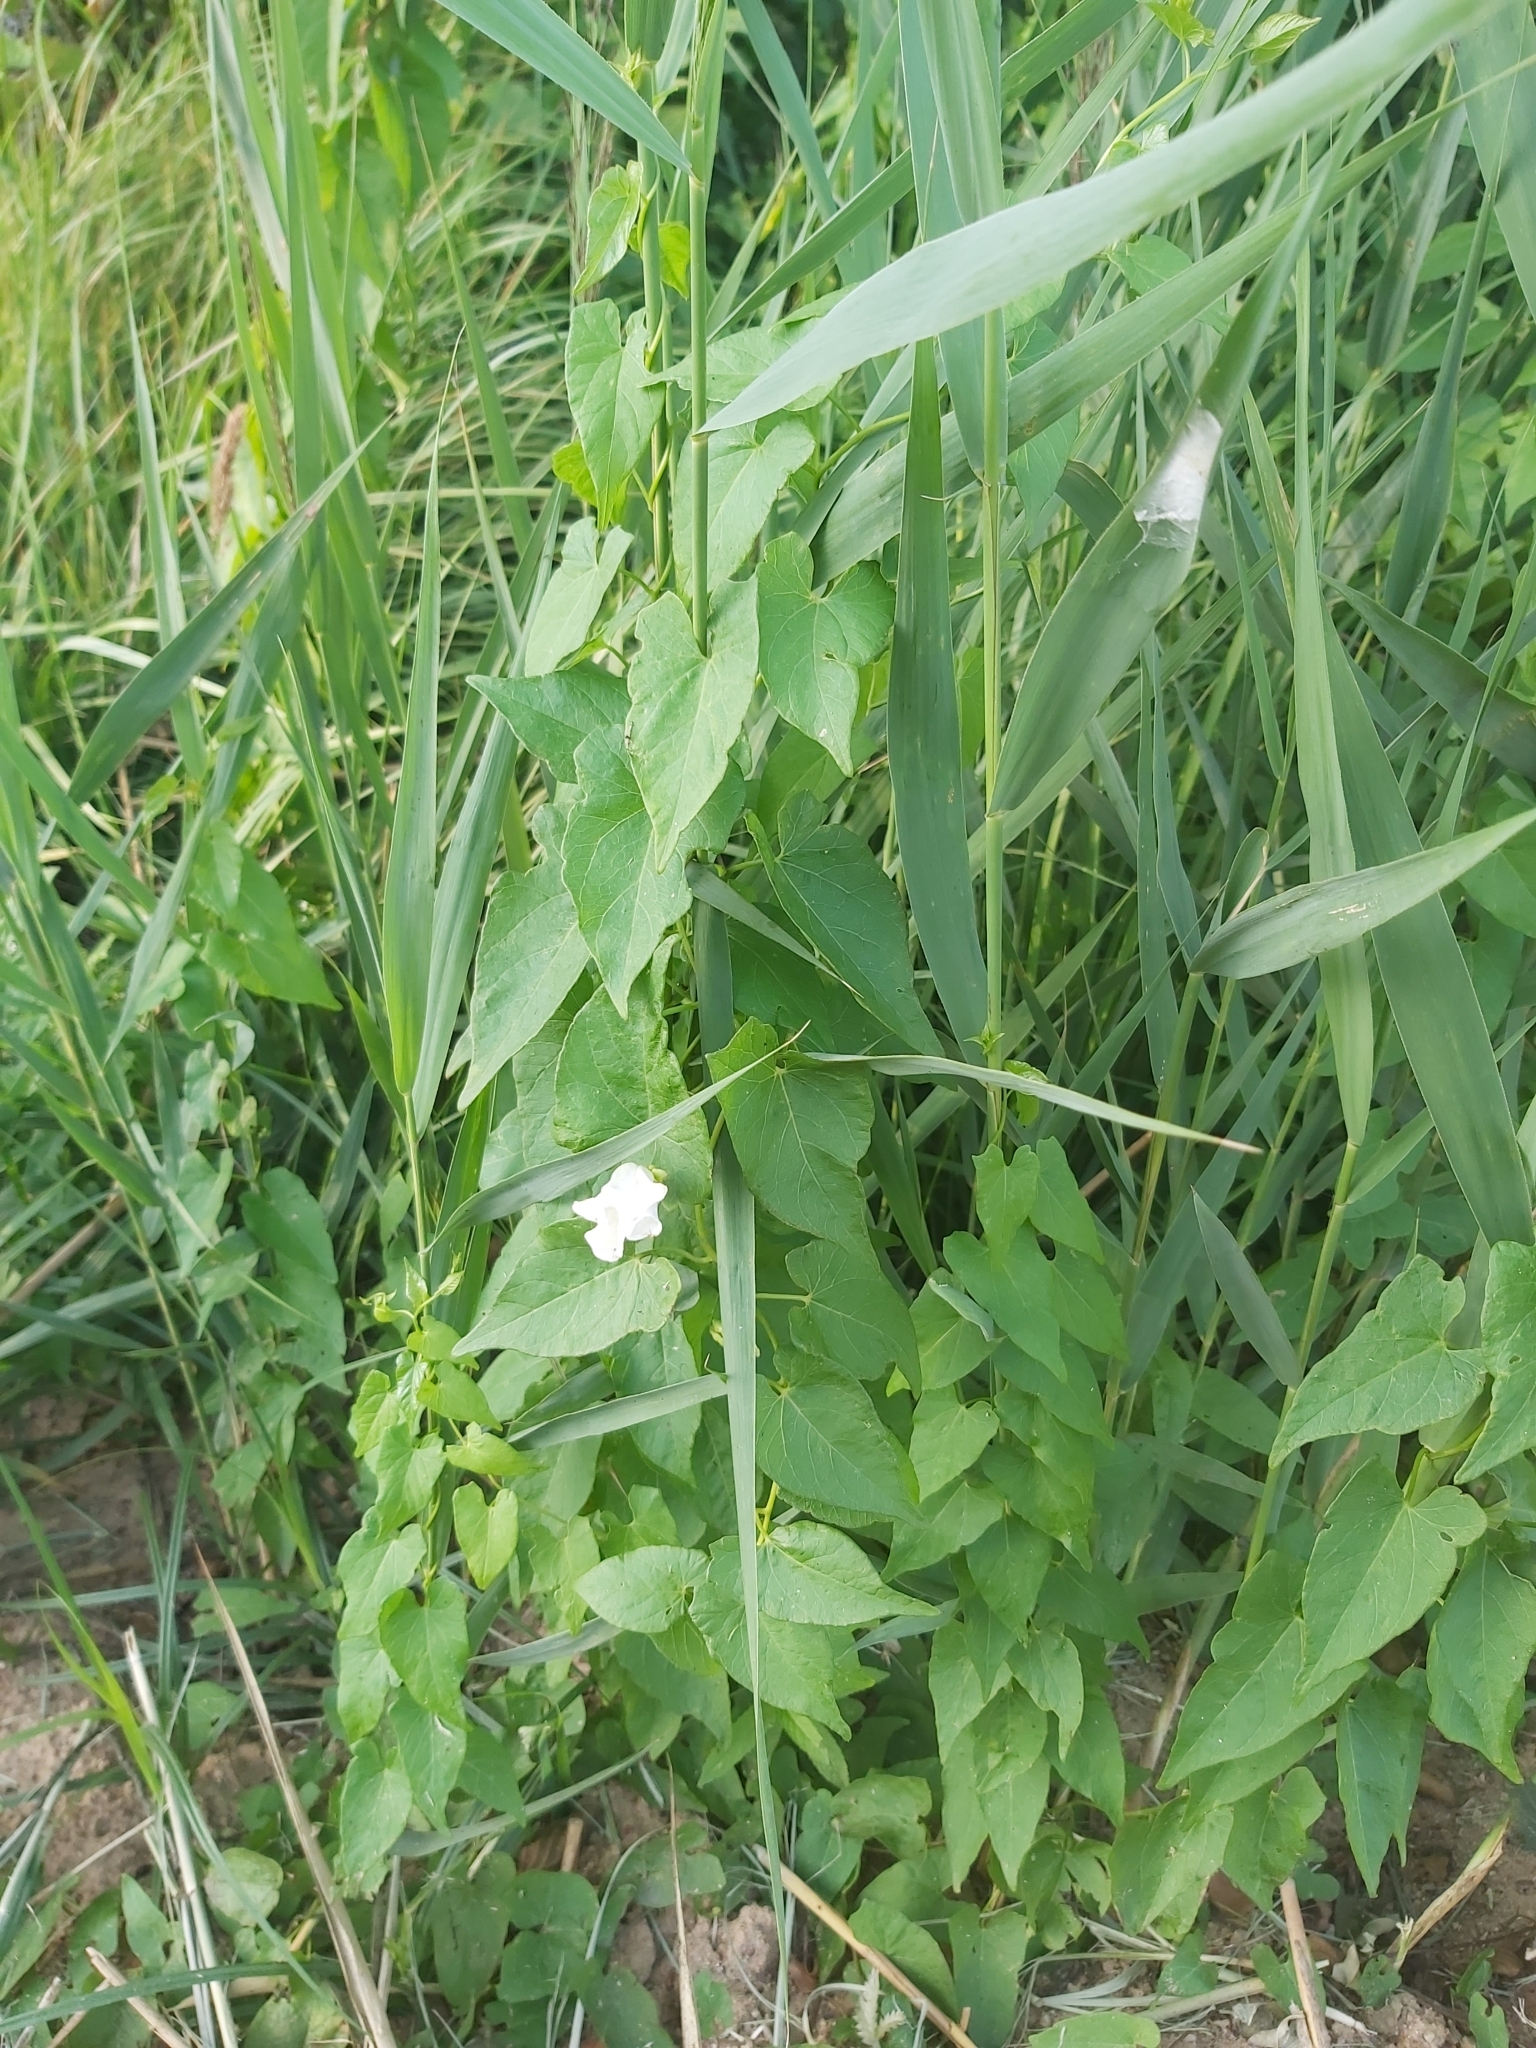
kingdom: Plantae
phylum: Tracheophyta
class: Magnoliopsida
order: Solanales
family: Convolvulaceae
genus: Calystegia
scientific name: Calystegia sepium
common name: Hedge bindweed
